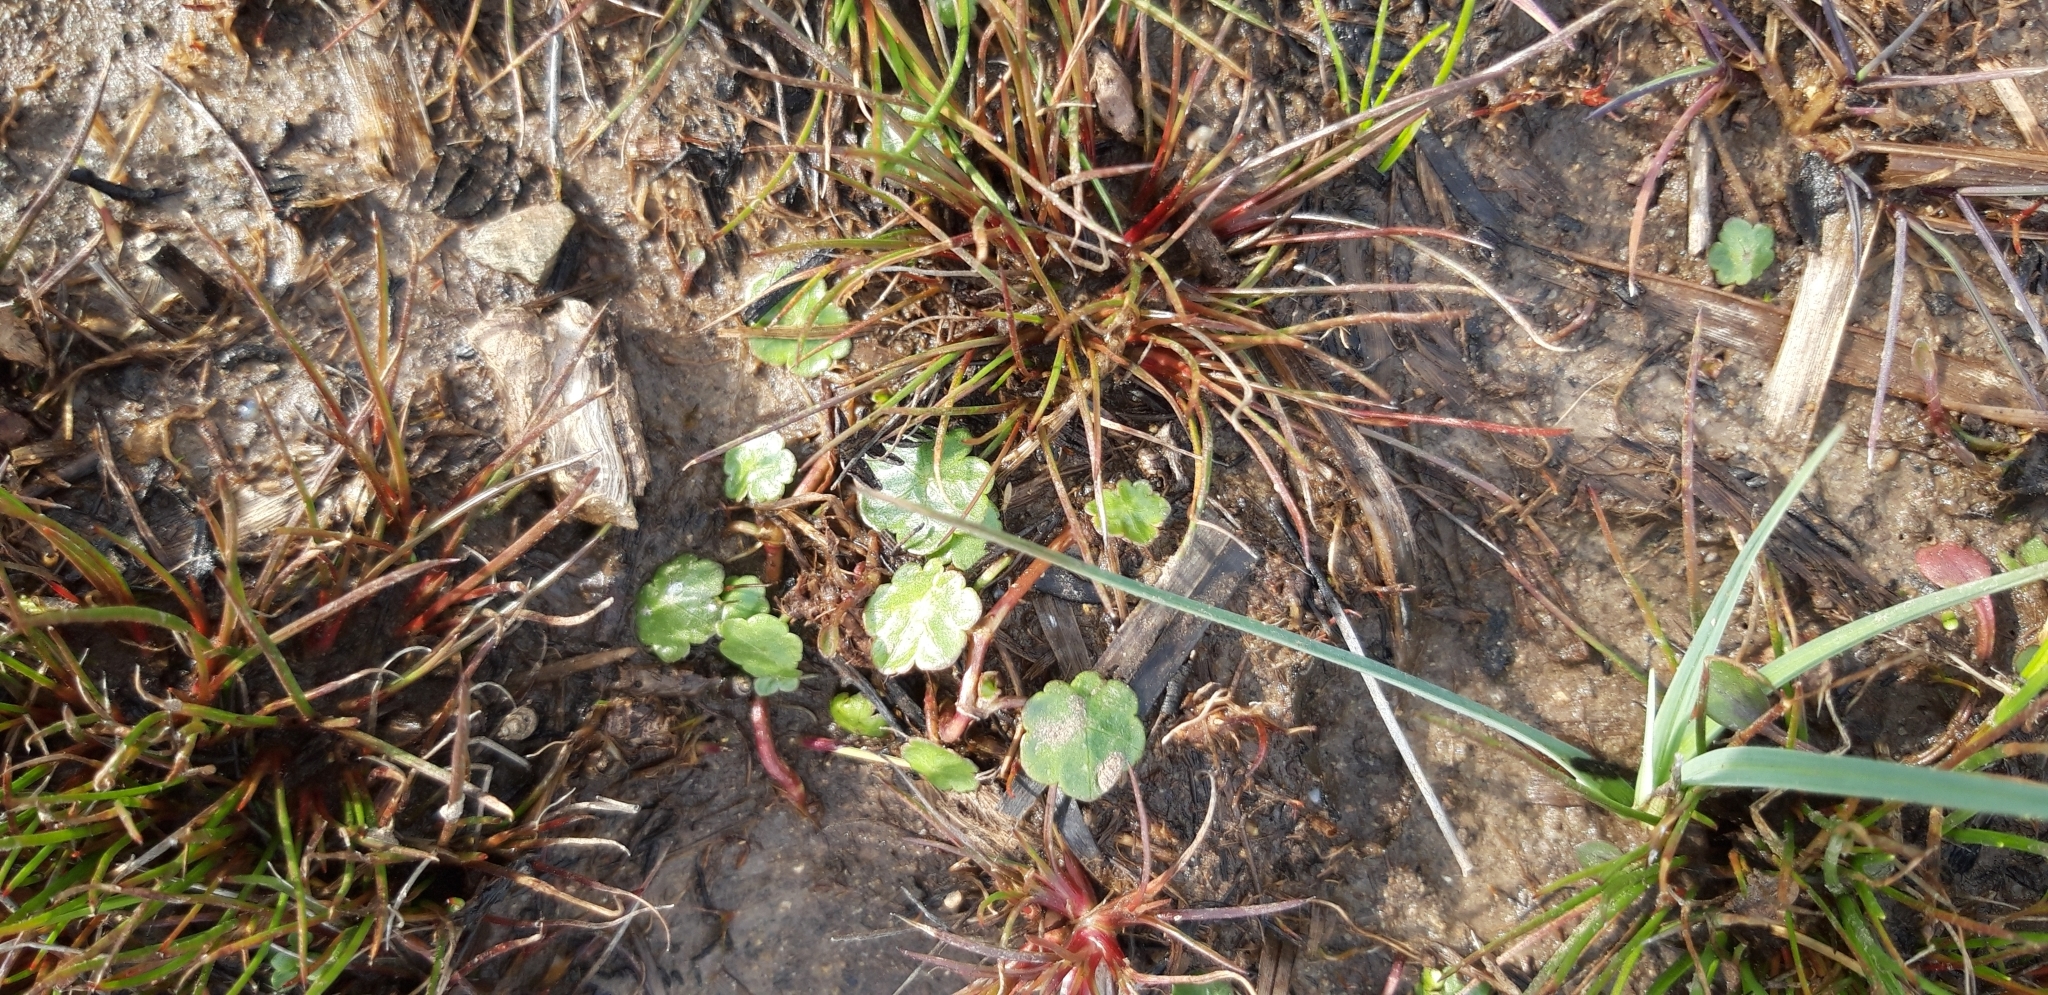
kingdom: Plantae
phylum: Tracheophyta
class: Magnoliopsida
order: Apiales
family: Araliaceae
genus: Hydrocotyle
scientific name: Hydrocotyle vulgaris
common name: Marsh pennywort
